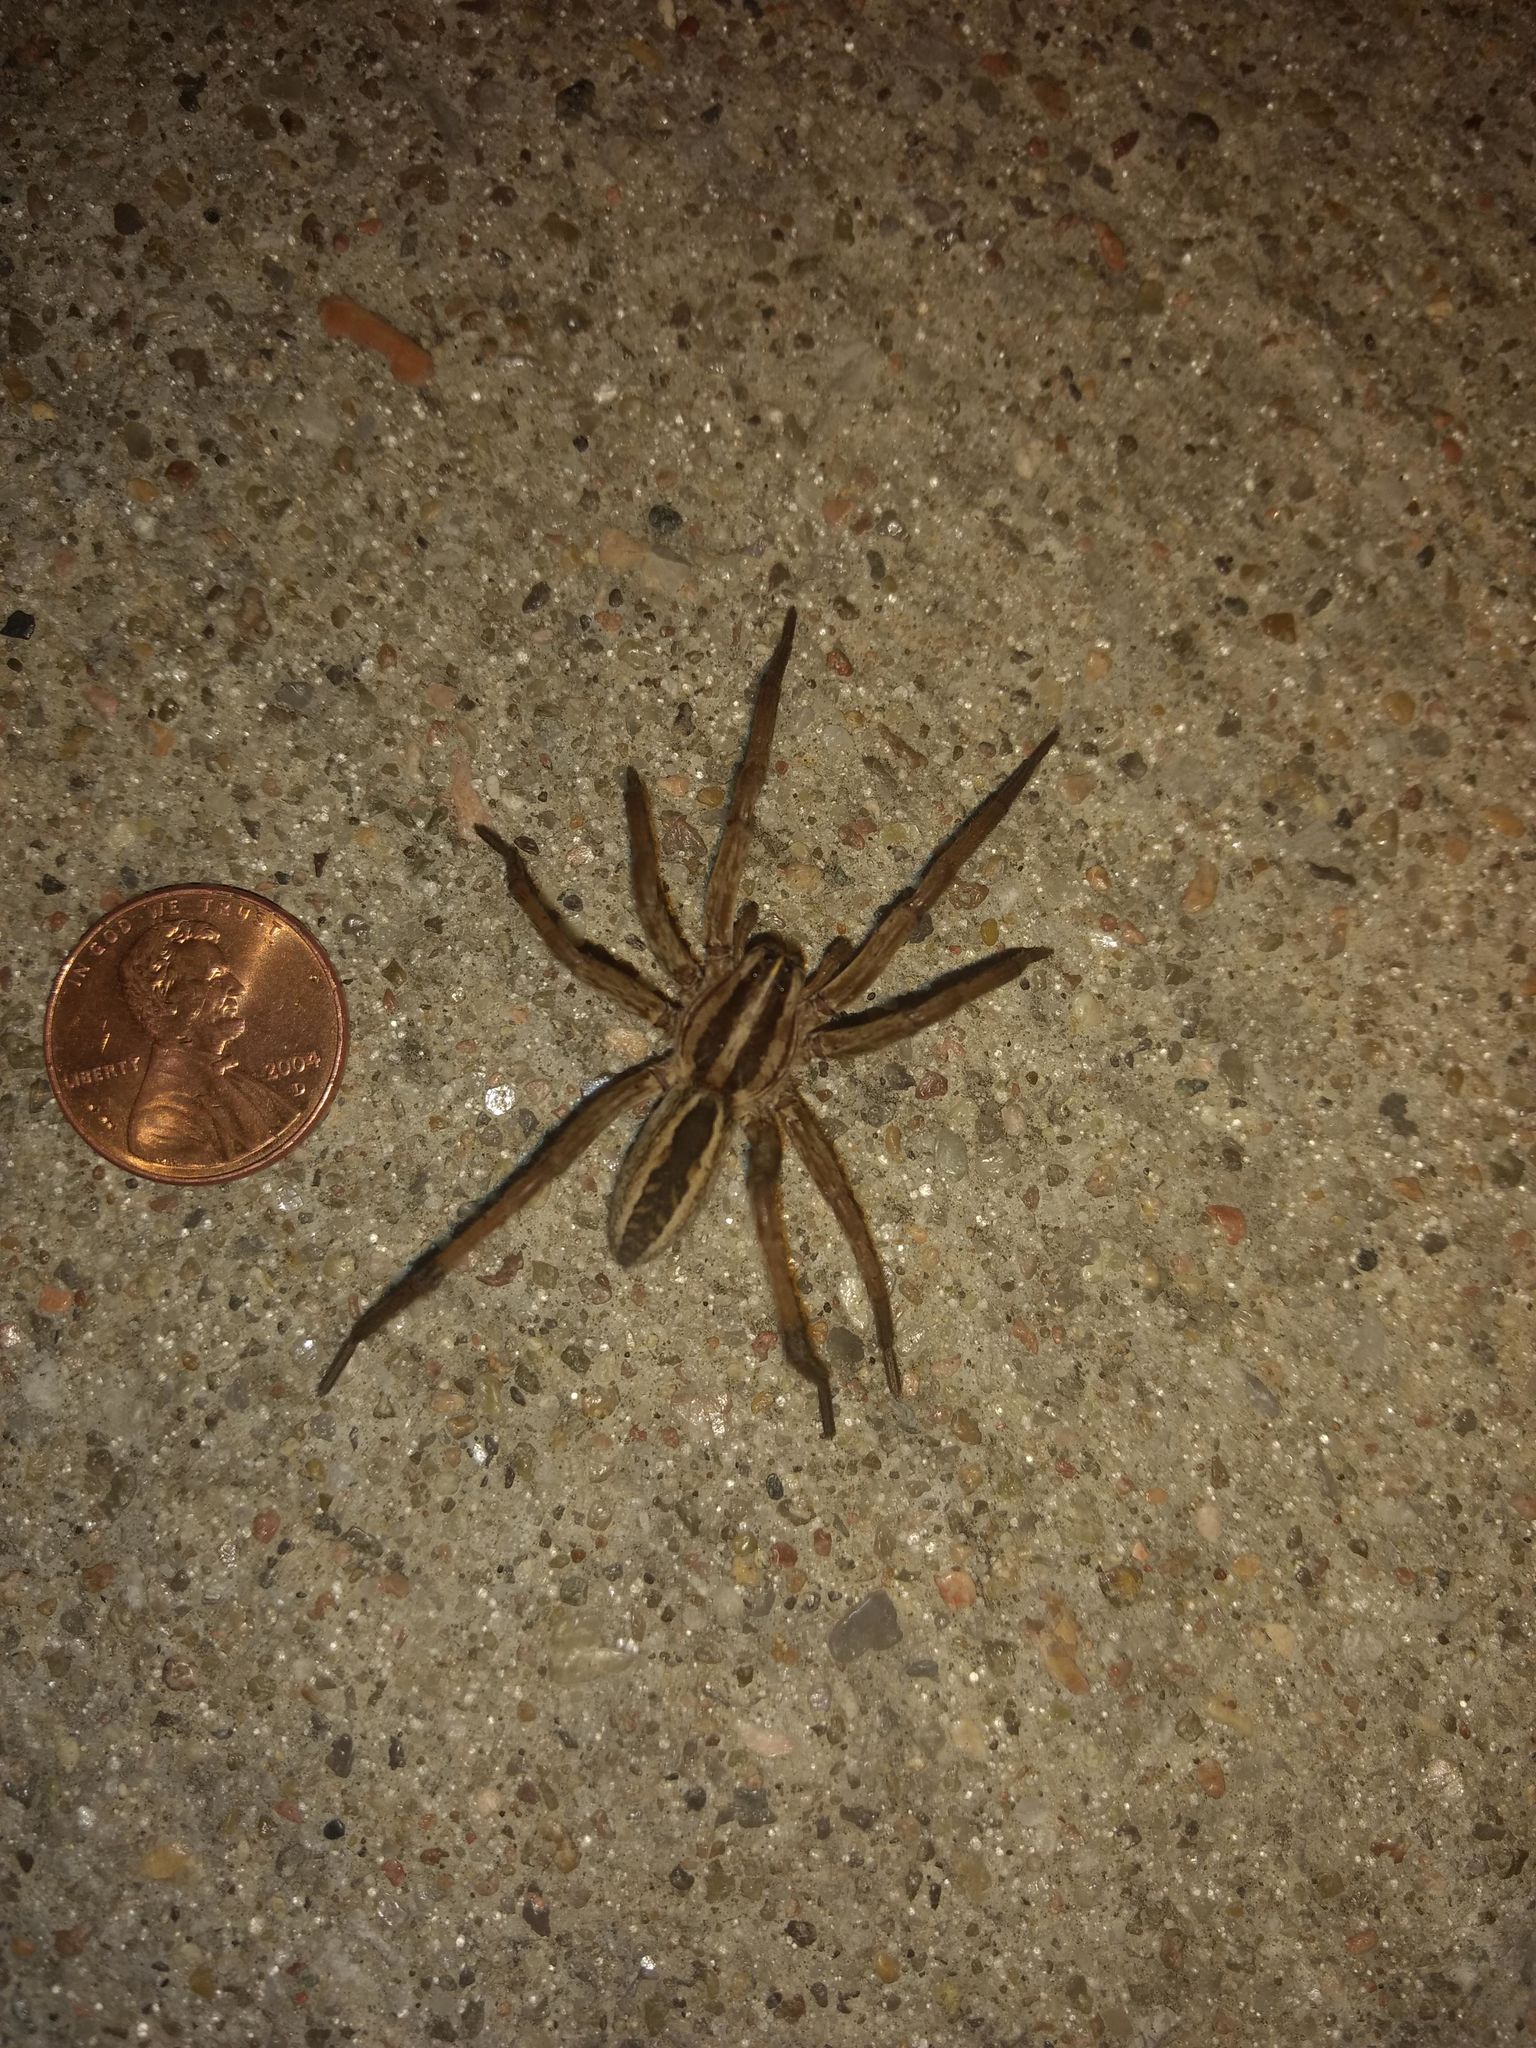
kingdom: Animalia
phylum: Arthropoda
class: Arachnida
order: Araneae
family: Lycosidae
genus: Rabidosa
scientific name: Rabidosa rabida
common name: Rabid wolf spider
